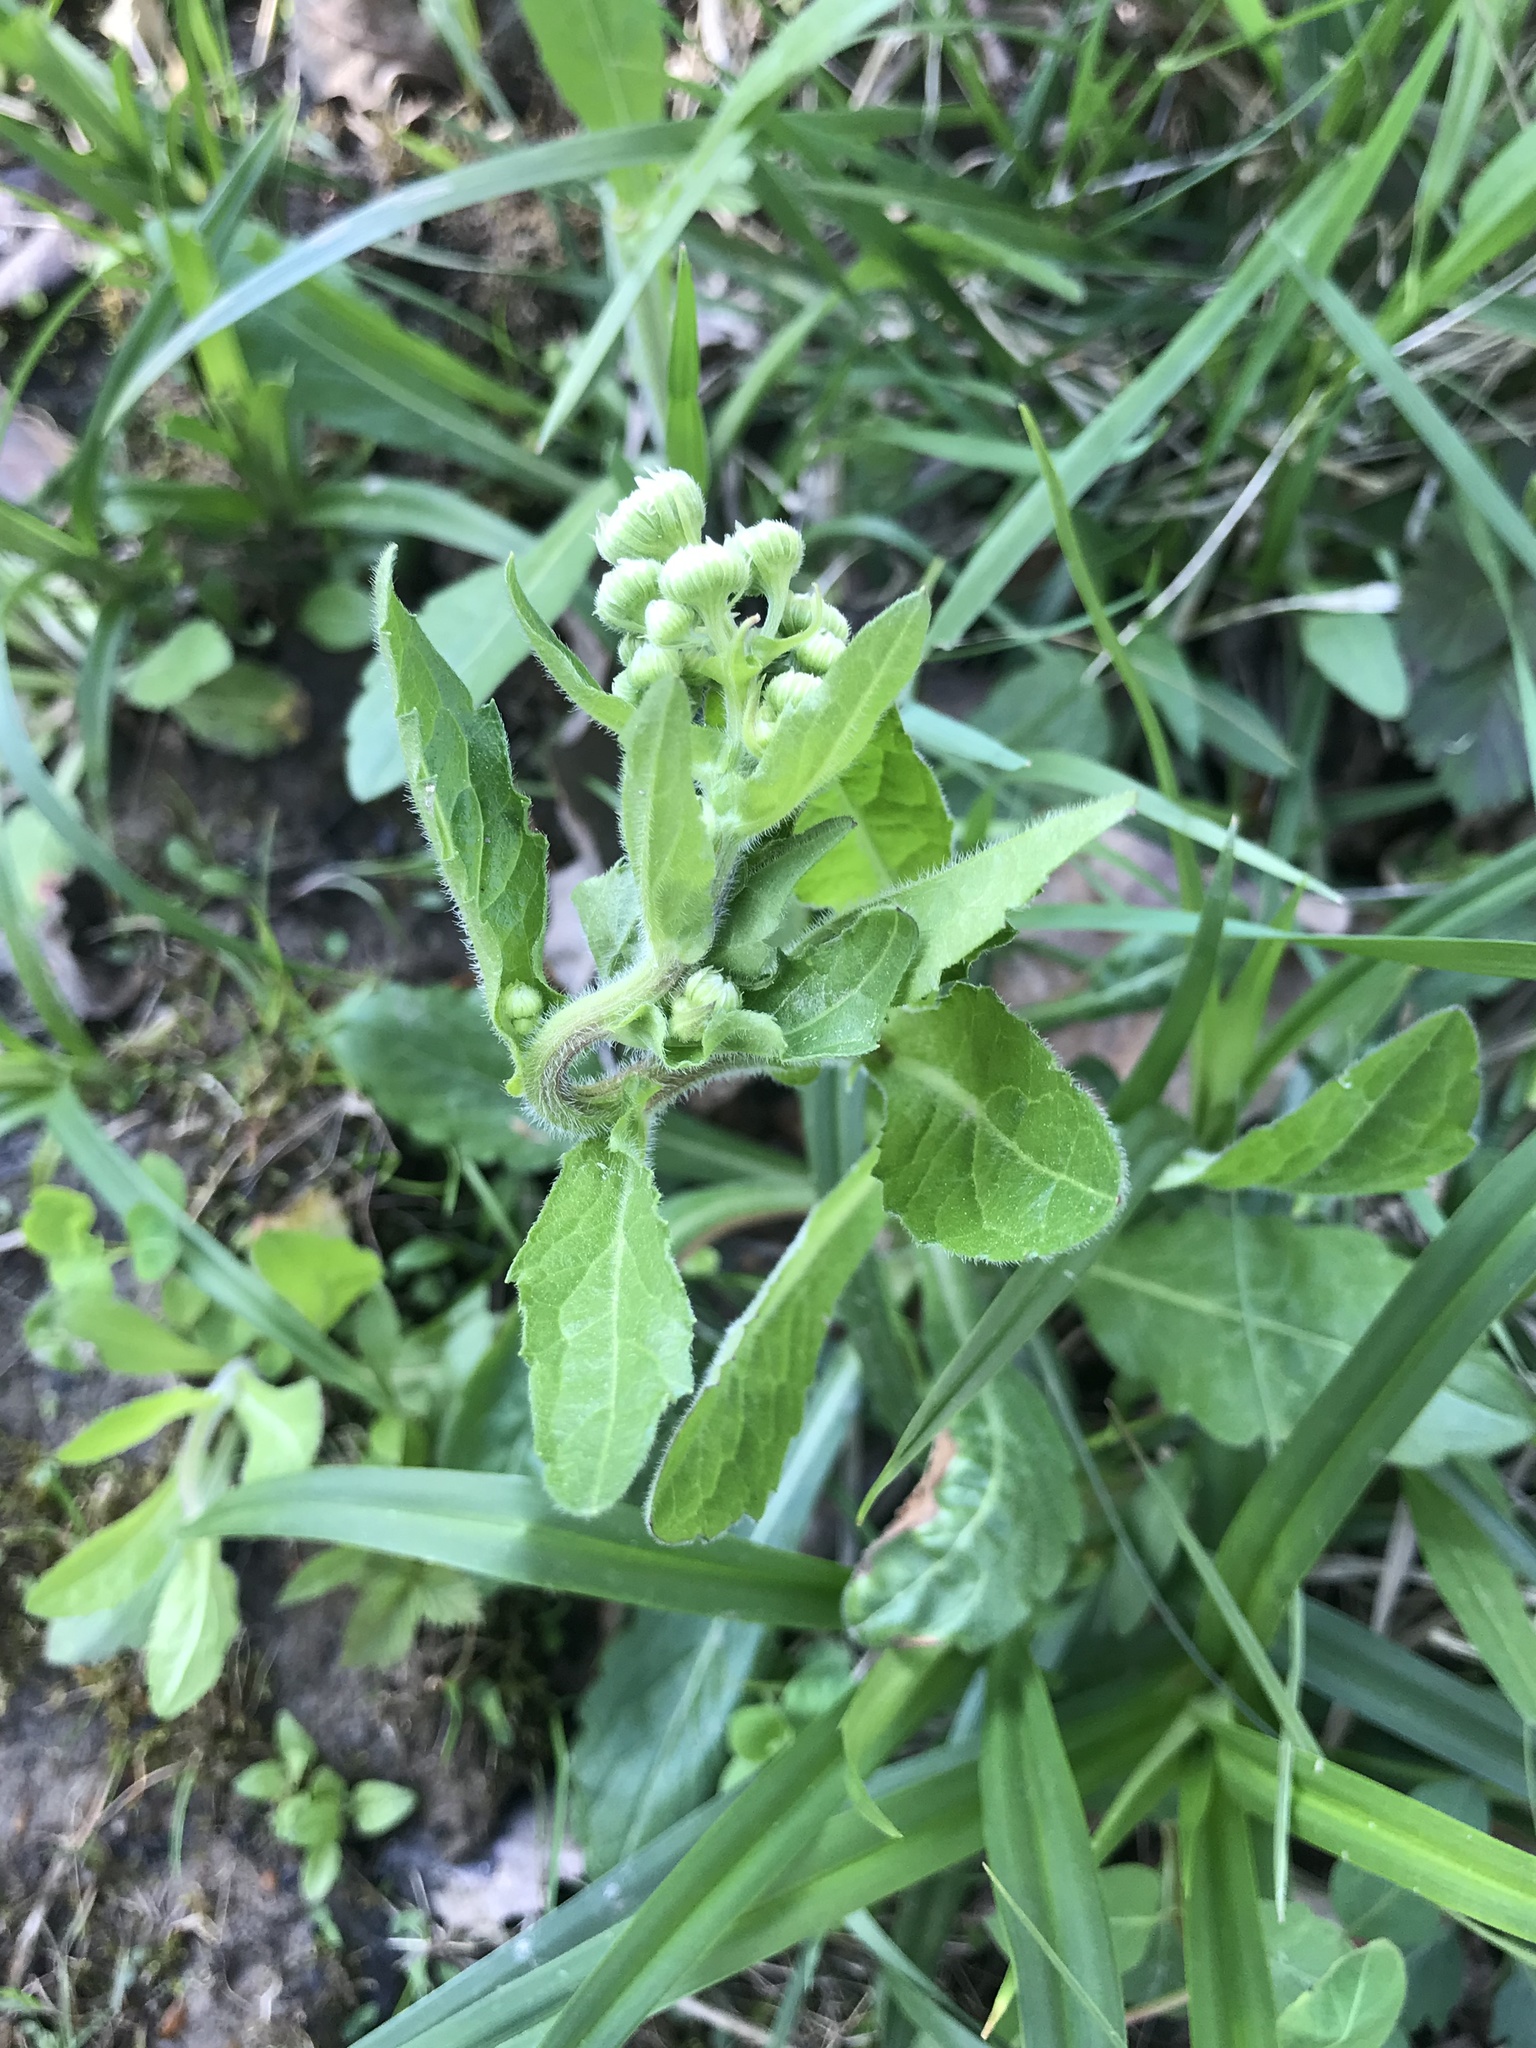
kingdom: Plantae
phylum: Tracheophyta
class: Magnoliopsida
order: Asterales
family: Asteraceae
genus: Erigeron
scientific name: Erigeron philadelphicus
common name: Robin's-plantain
